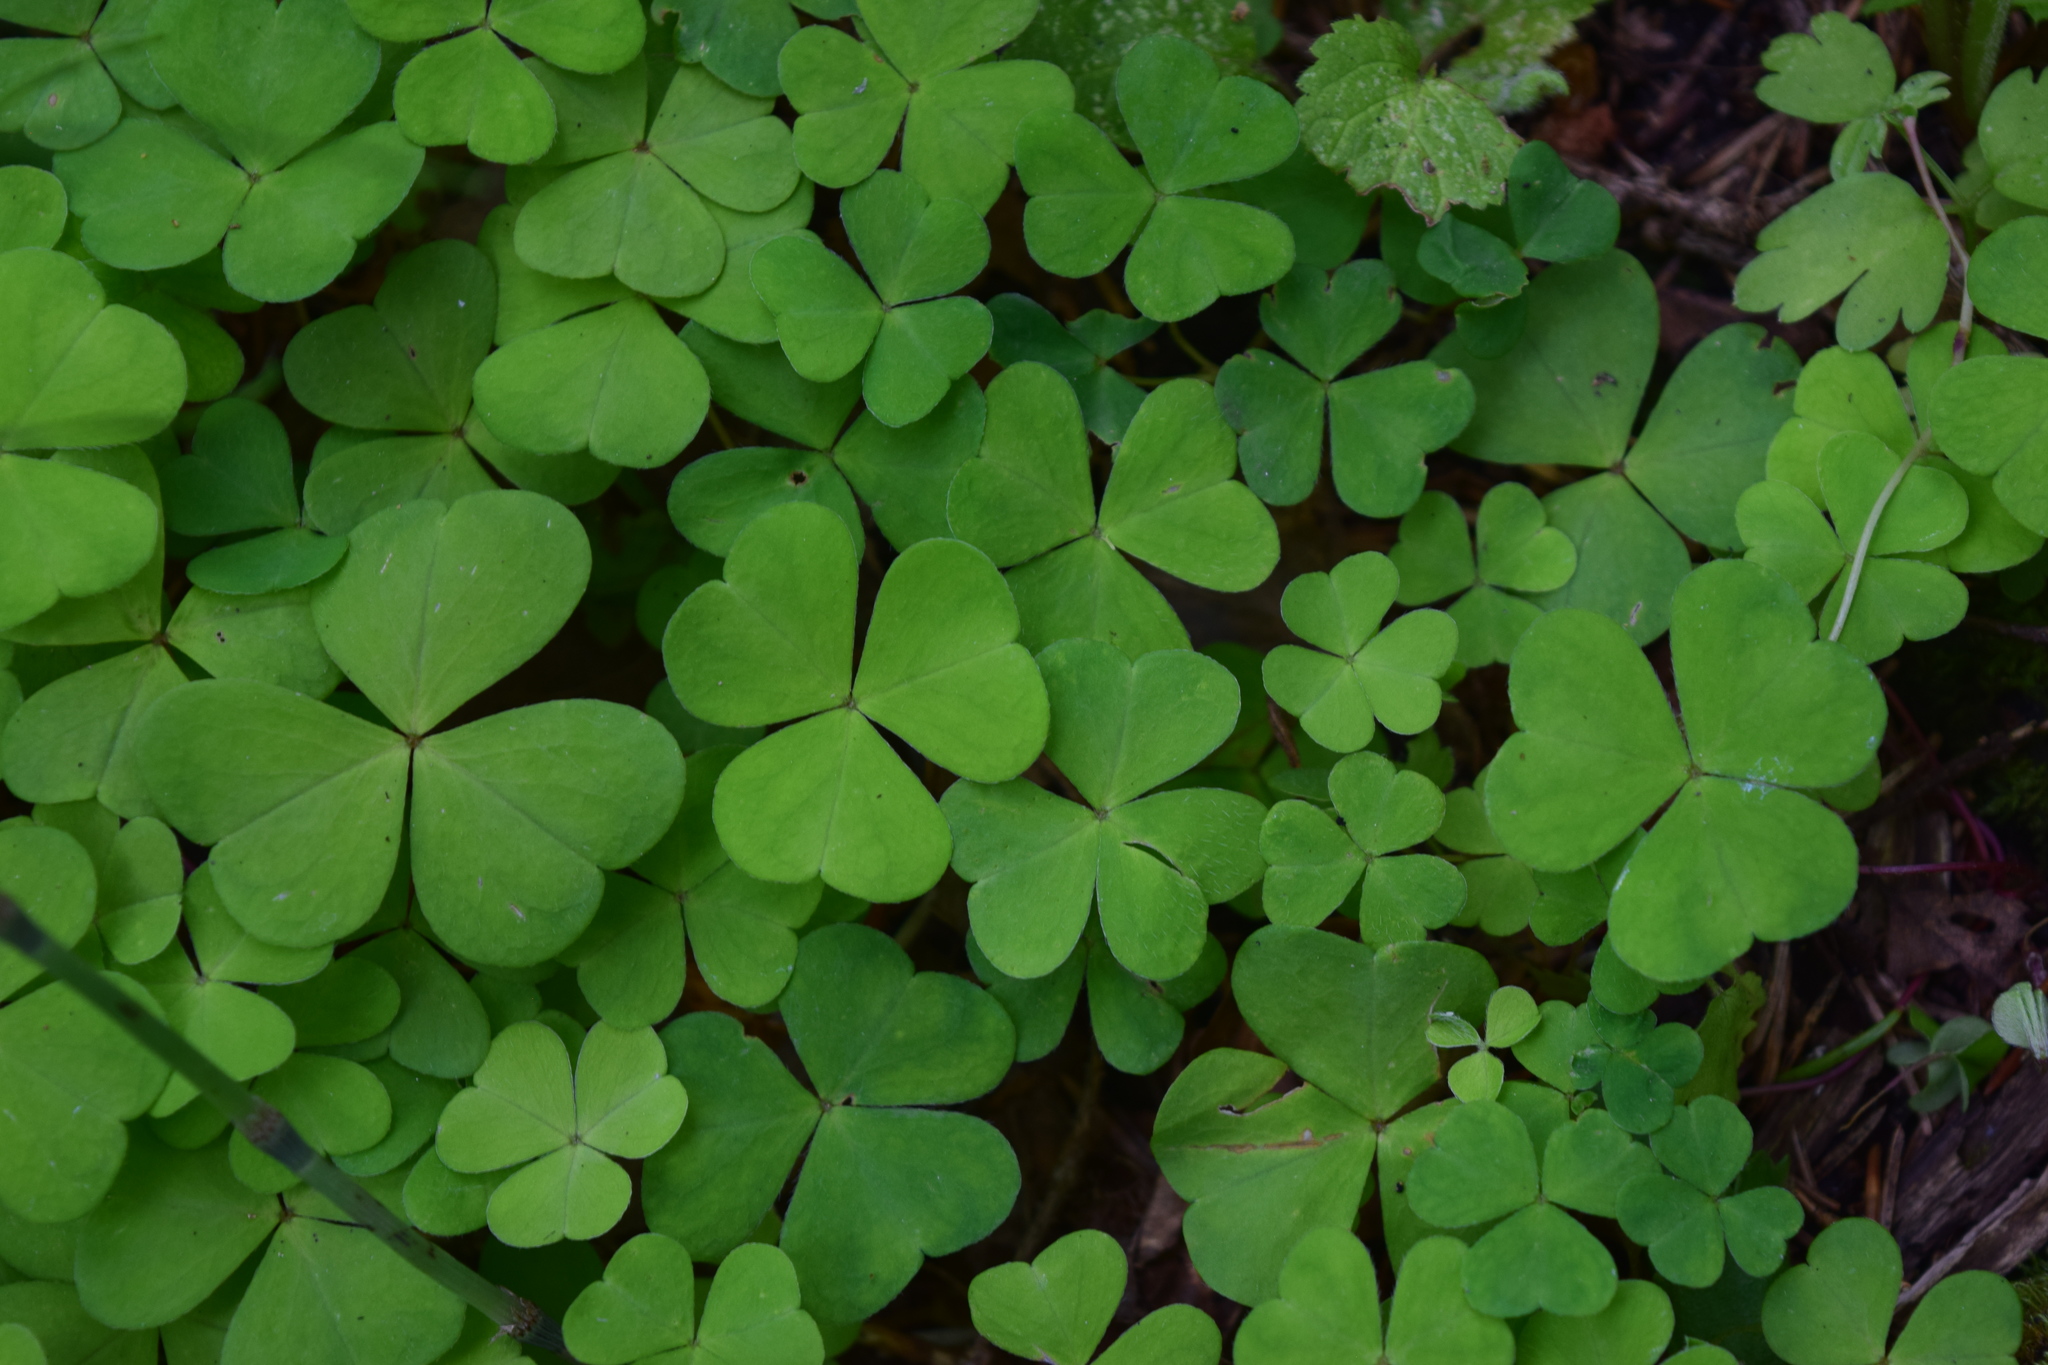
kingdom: Plantae
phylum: Tracheophyta
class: Magnoliopsida
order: Oxalidales
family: Oxalidaceae
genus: Oxalis
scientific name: Oxalis acetosella
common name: Wood-sorrel
